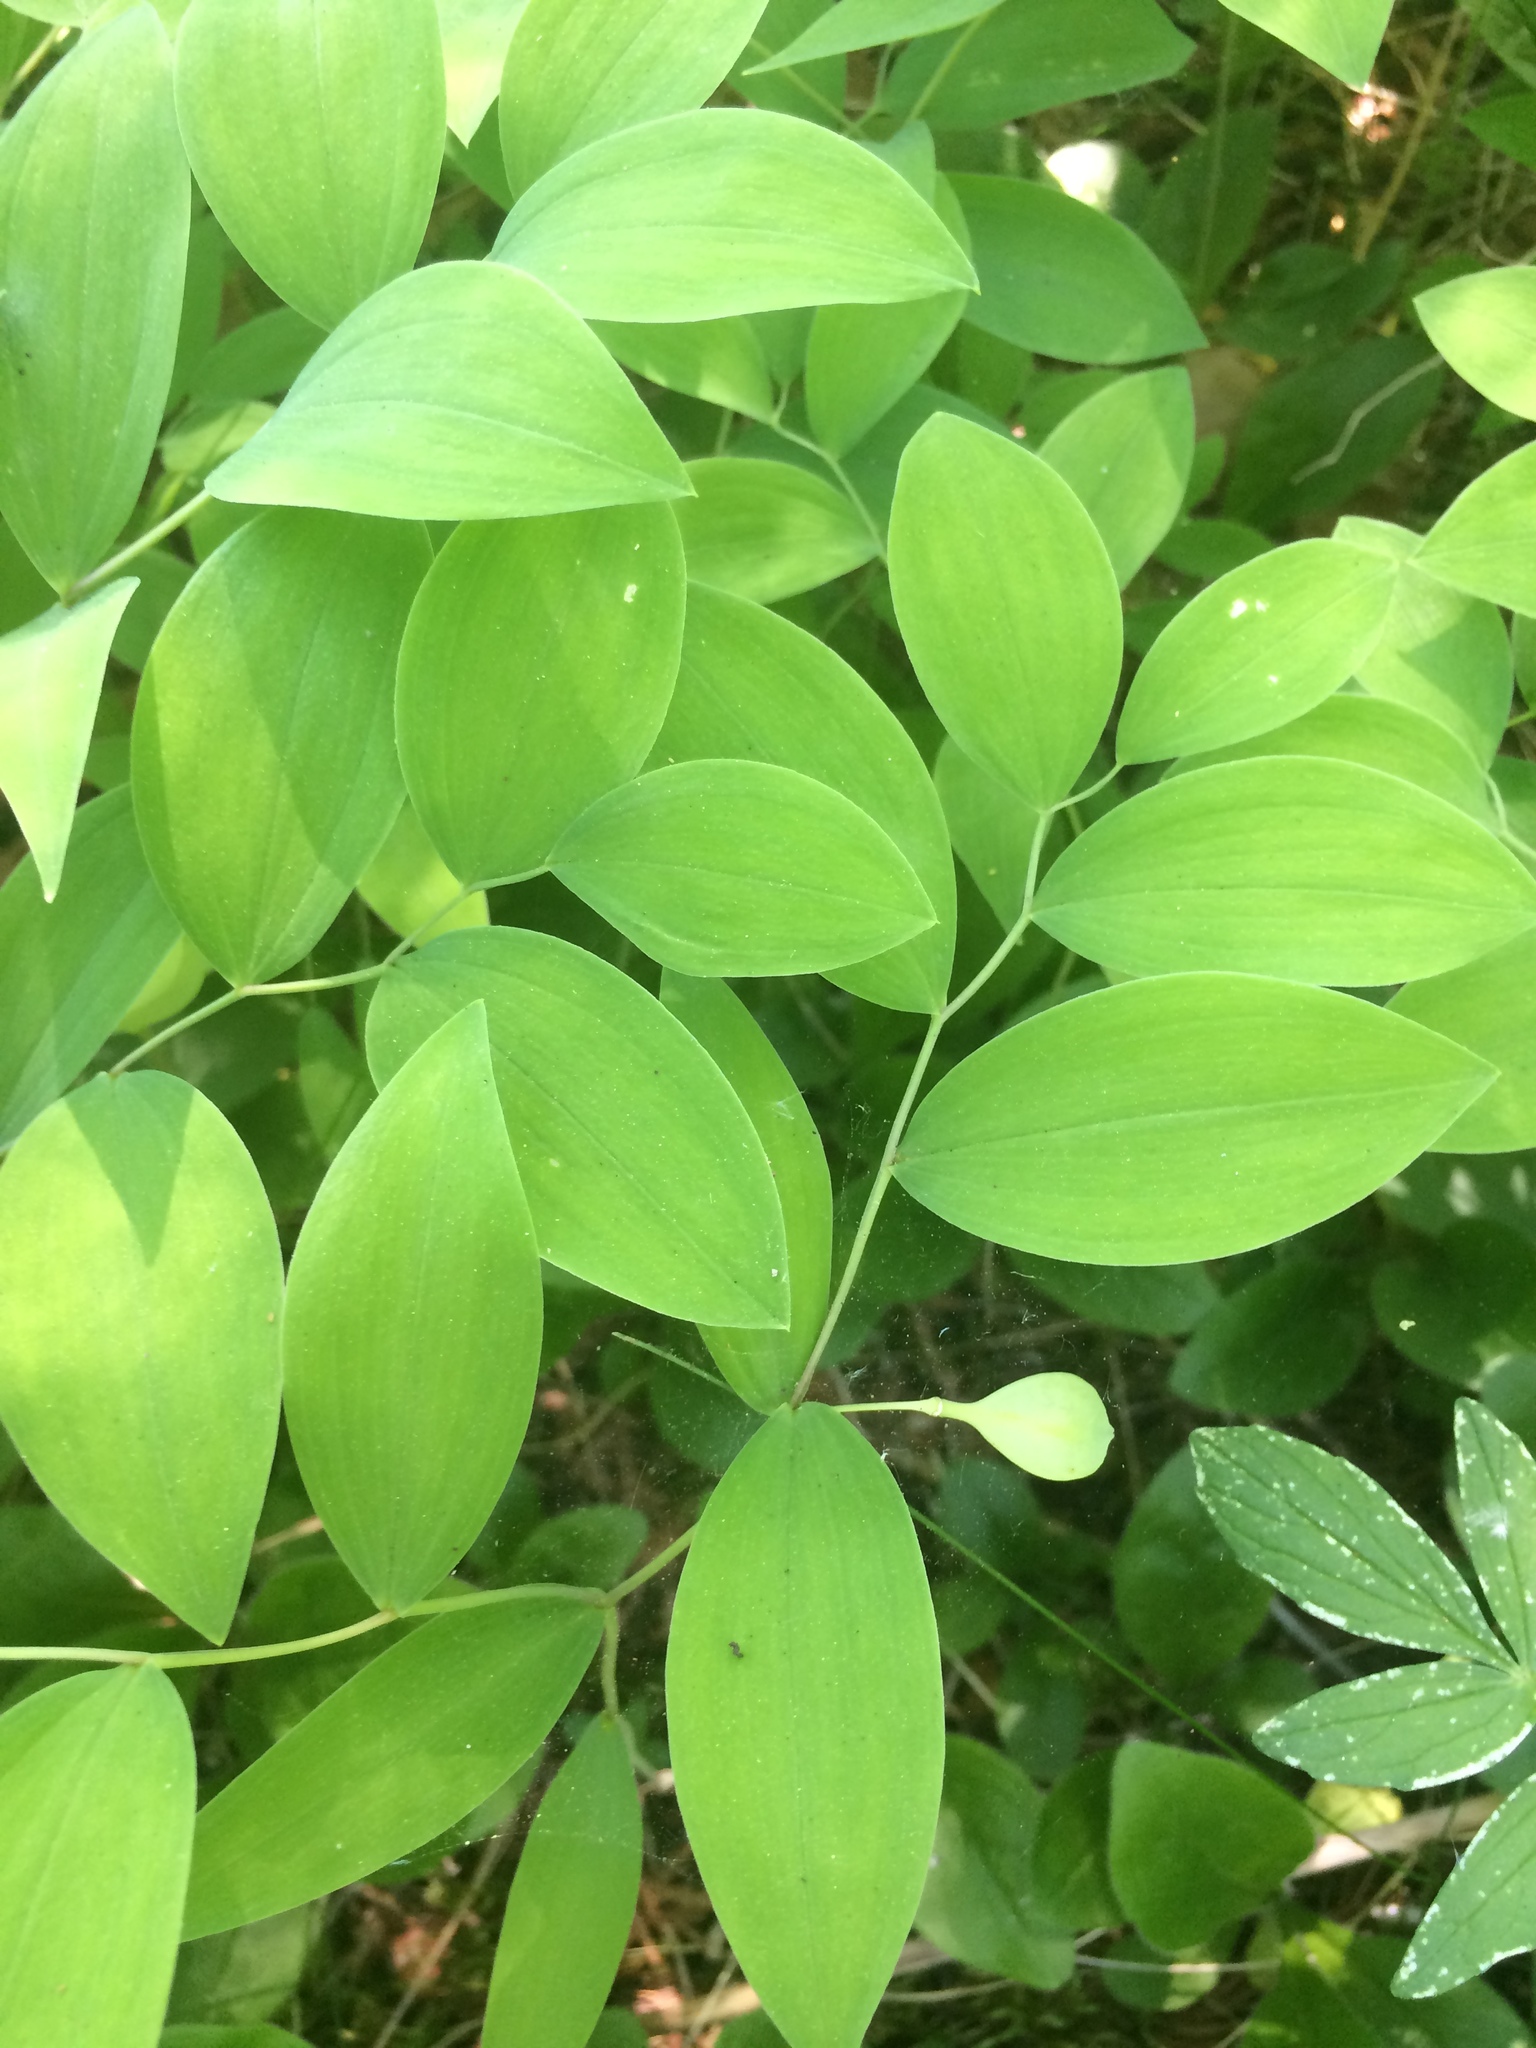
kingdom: Plantae
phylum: Tracheophyta
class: Liliopsida
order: Liliales
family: Colchicaceae
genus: Uvularia
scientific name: Uvularia sessilifolia
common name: Straw-lily
